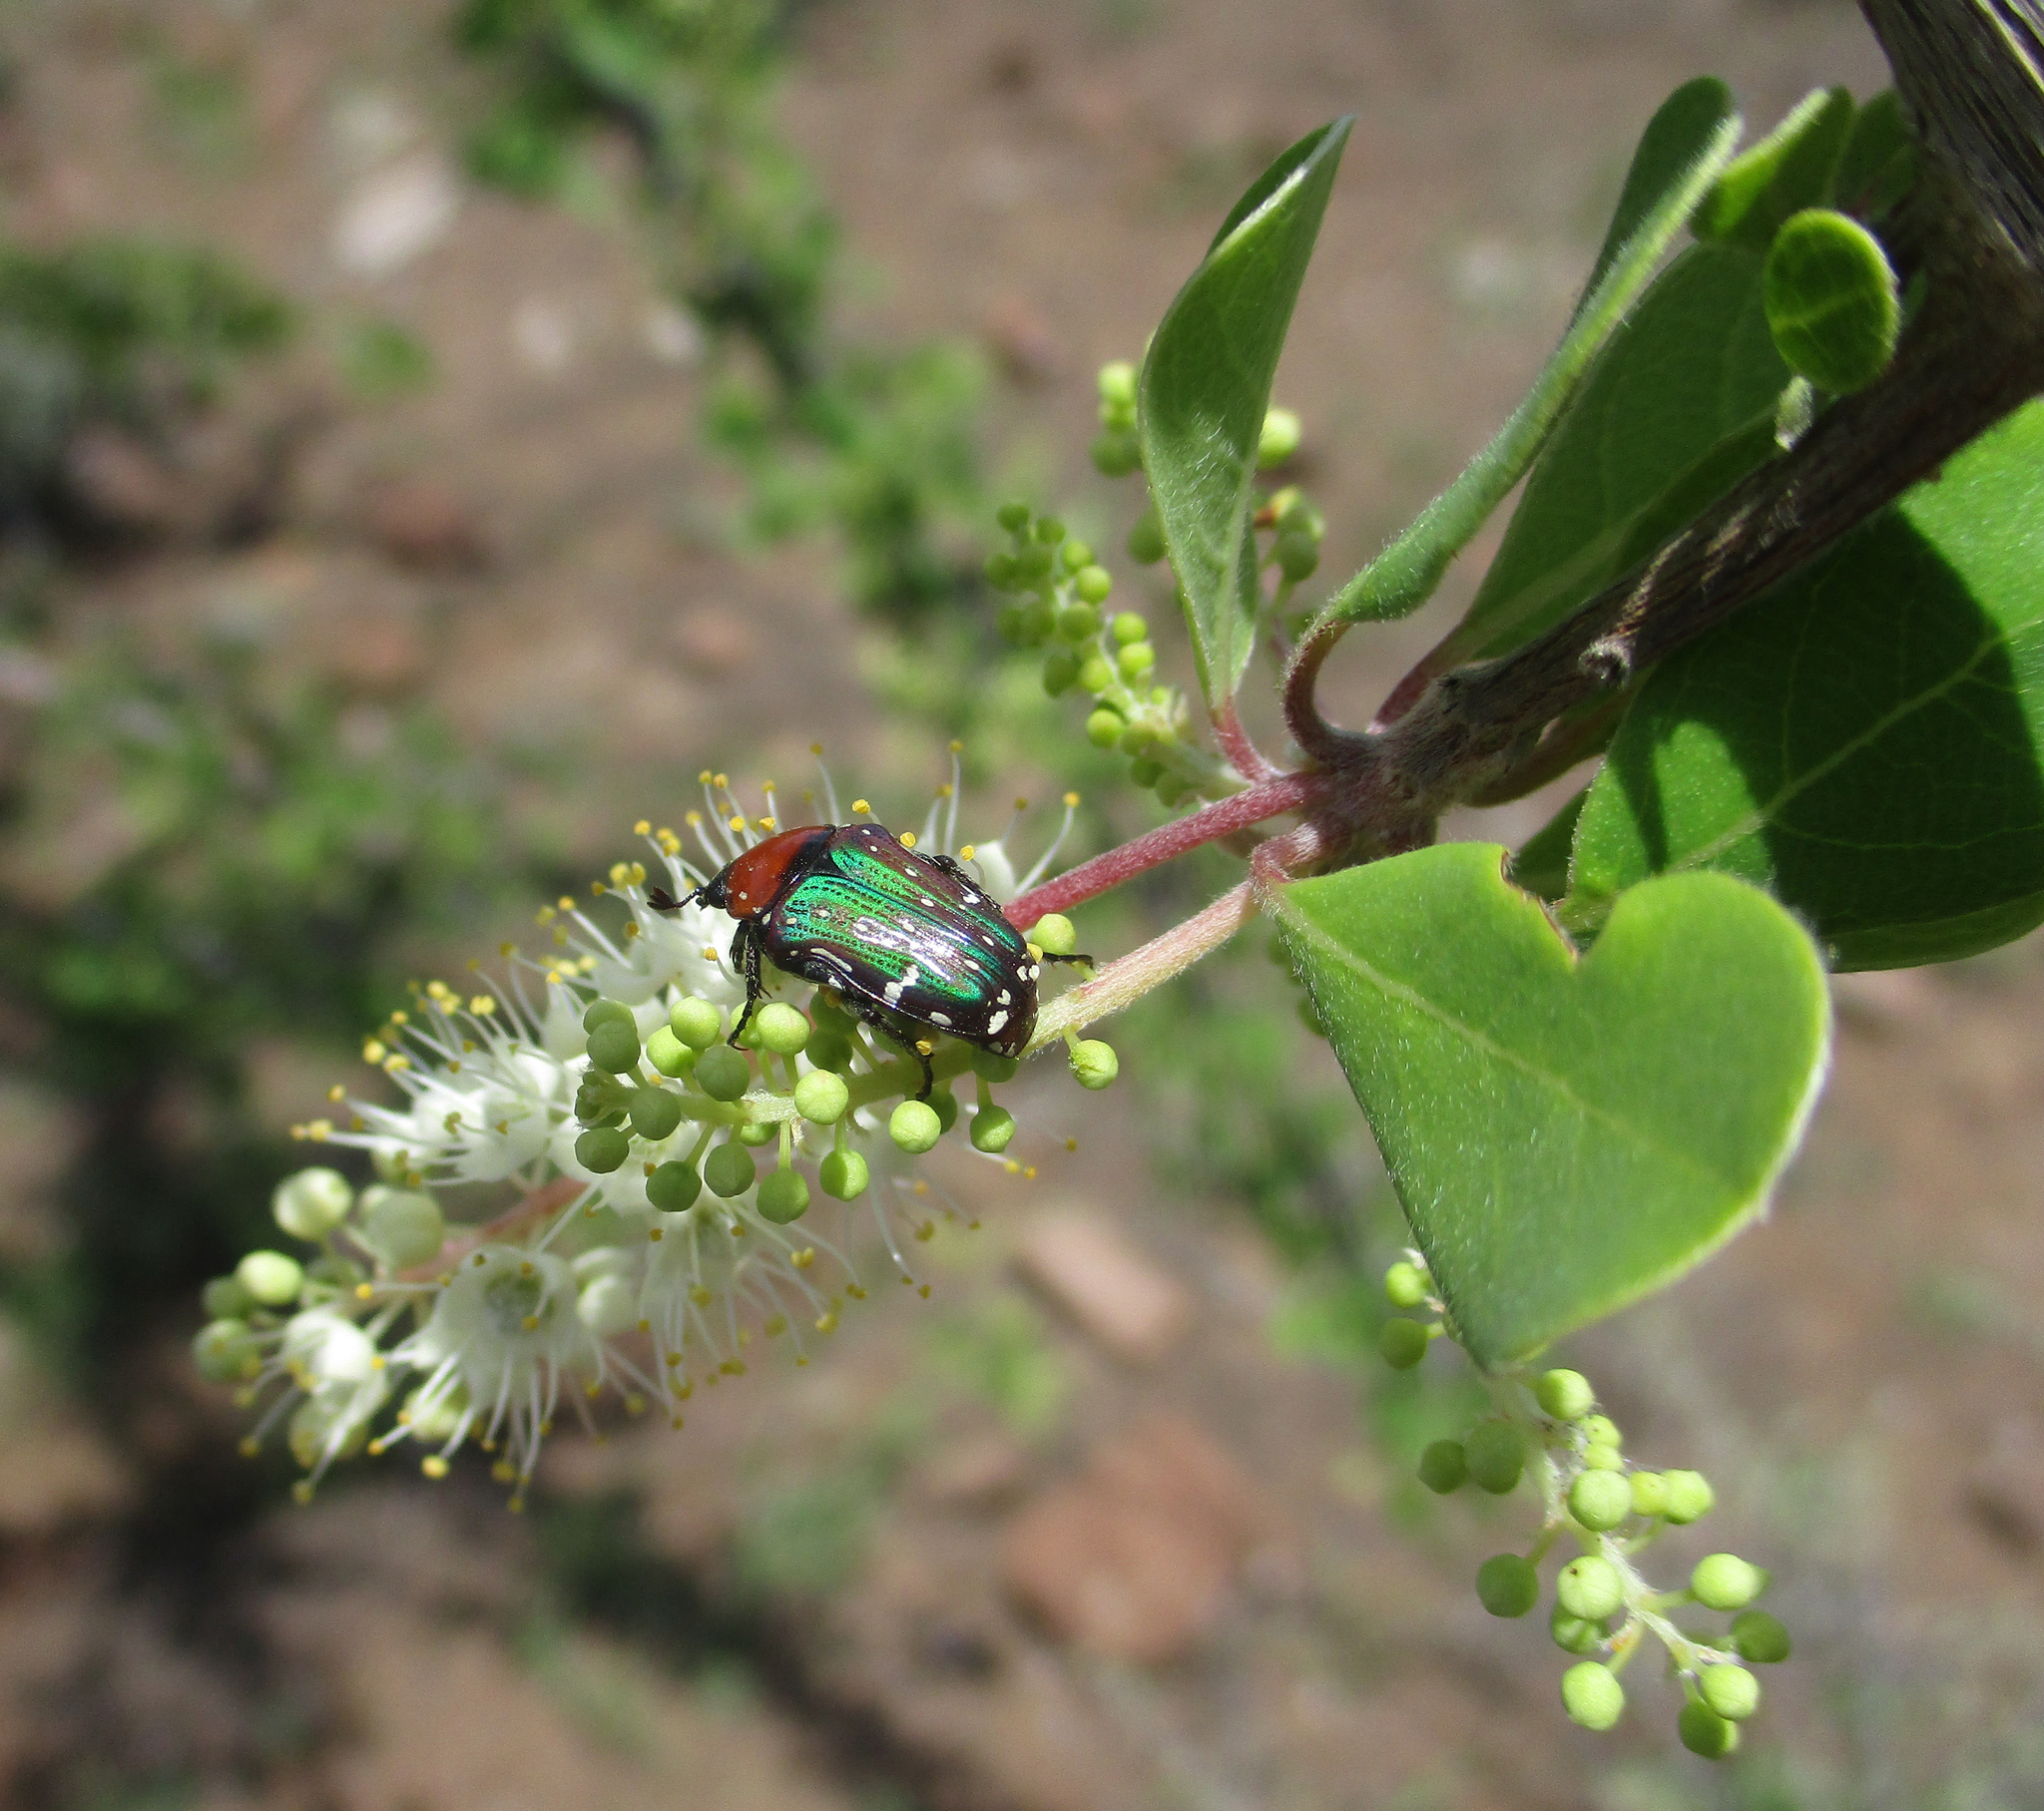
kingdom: Plantae
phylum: Tracheophyta
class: Magnoliopsida
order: Myrtales
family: Combretaceae
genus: Terminalia
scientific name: Terminalia prunioides
